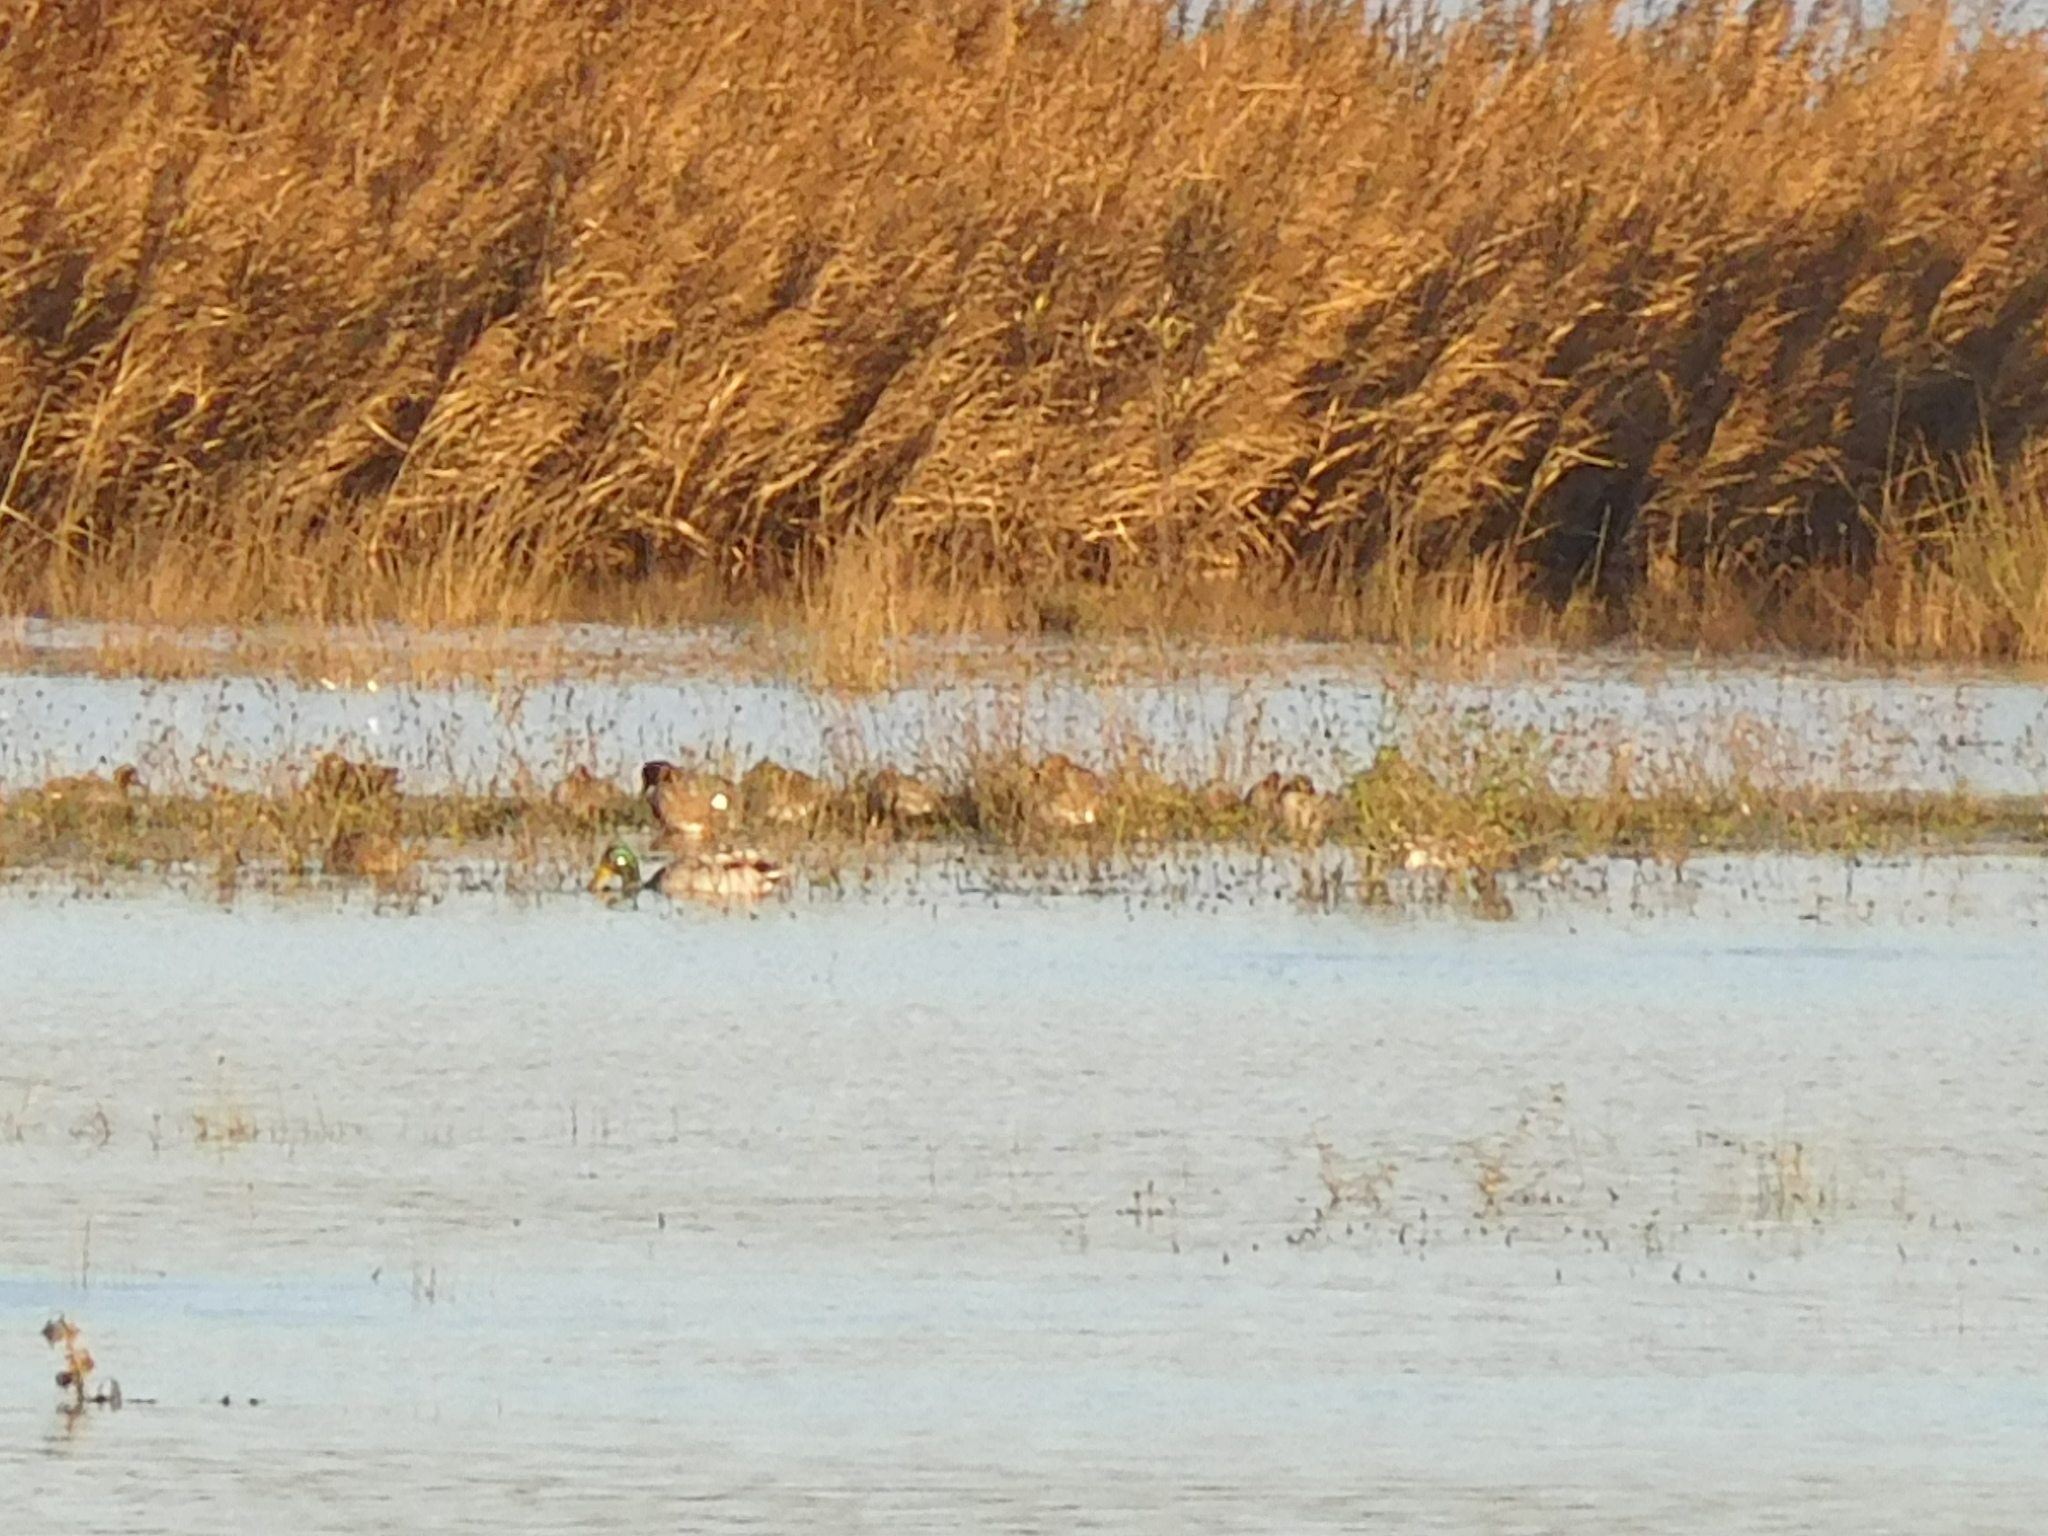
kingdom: Animalia
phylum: Chordata
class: Aves
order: Anseriformes
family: Anatidae
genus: Anas
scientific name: Anas platyrhynchos
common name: Mallard
